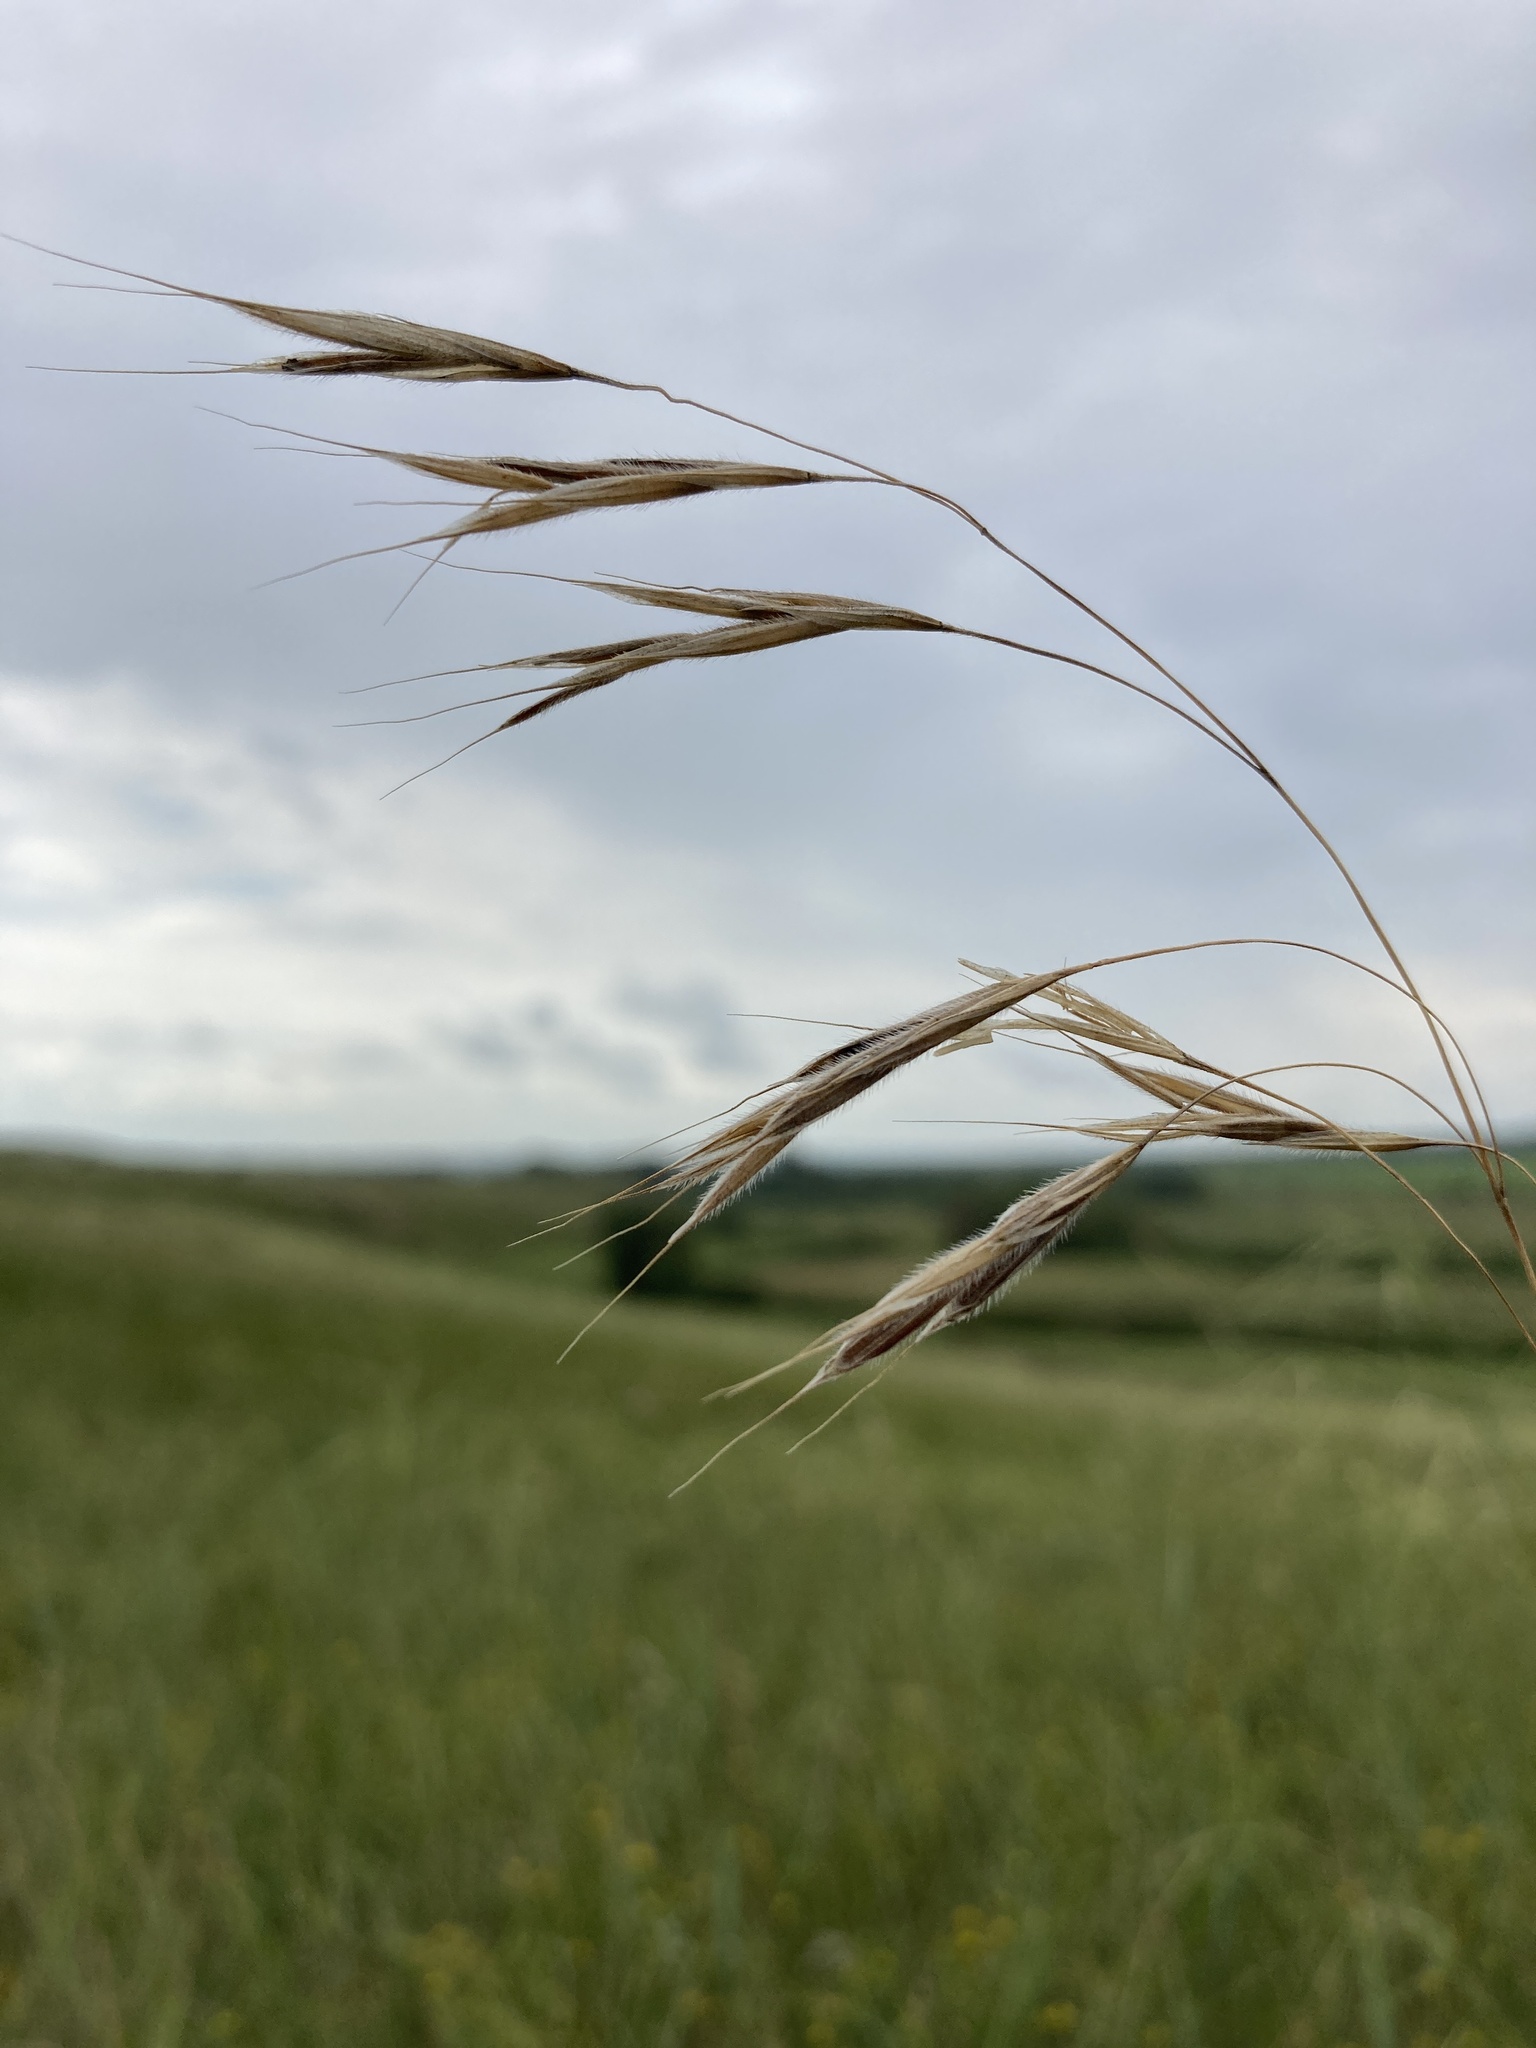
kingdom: Plantae
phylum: Tracheophyta
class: Liliopsida
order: Poales
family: Poaceae
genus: Bromus
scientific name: Bromus riparius
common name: Meadow brome
